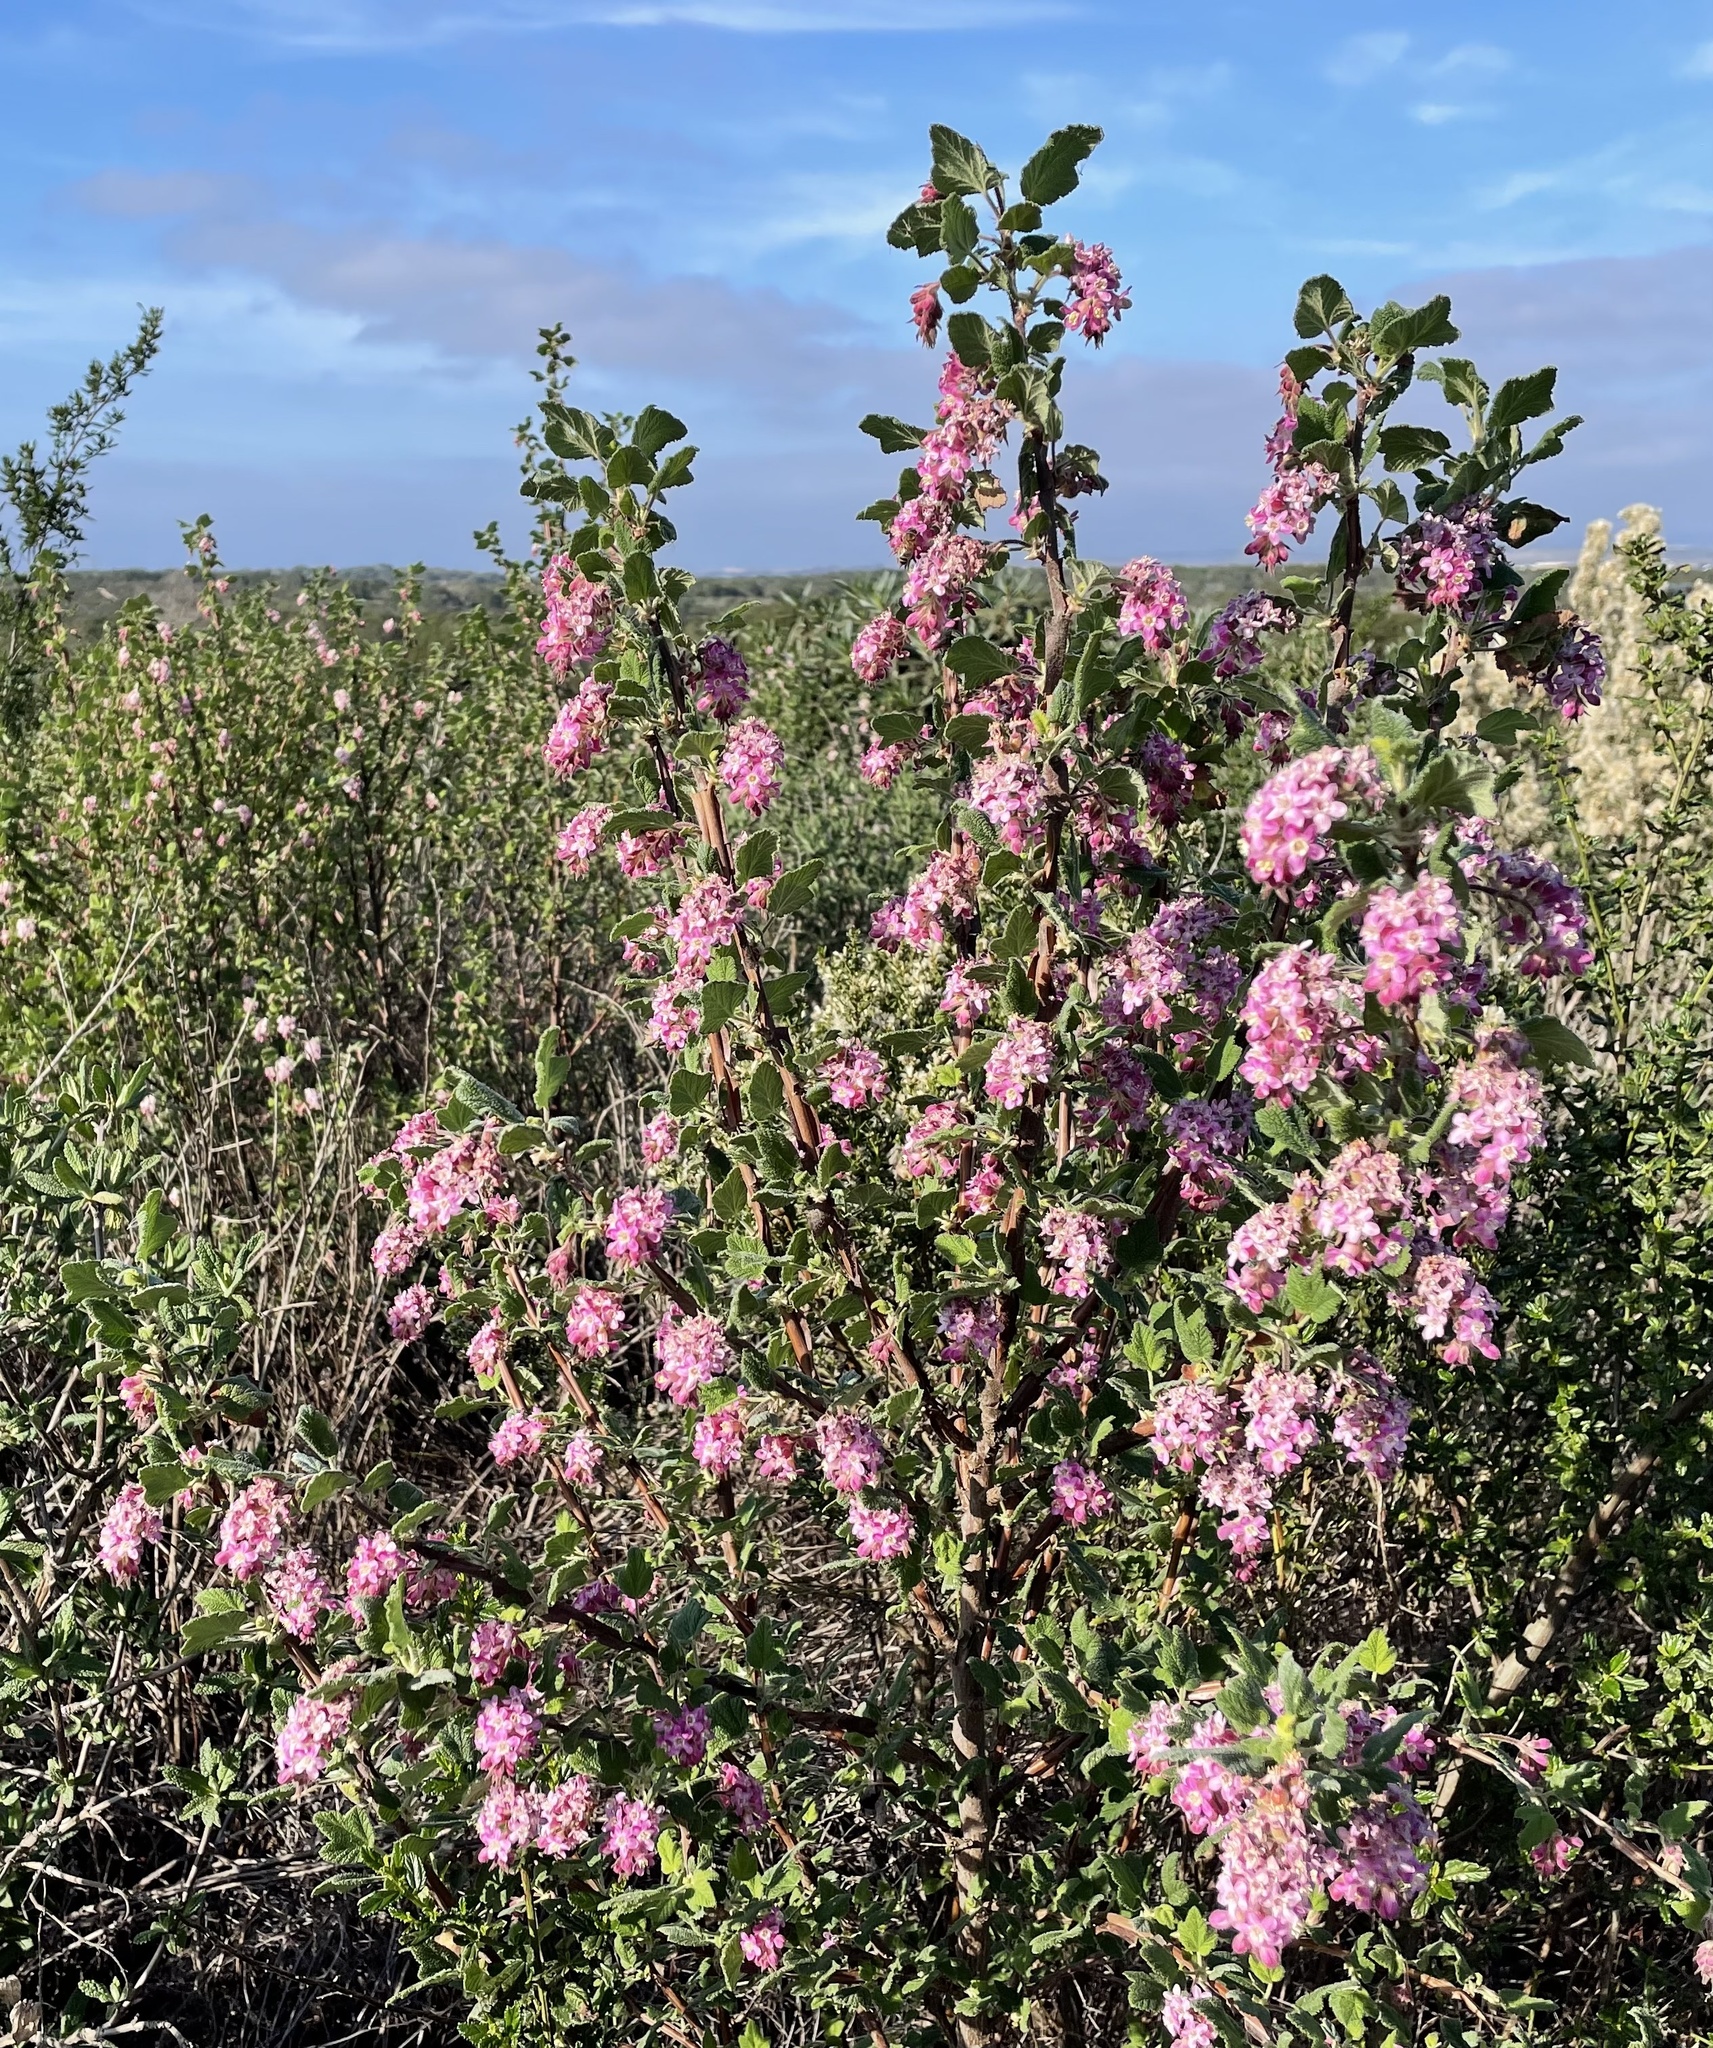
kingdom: Plantae
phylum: Tracheophyta
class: Magnoliopsida
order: Saxifragales
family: Grossulariaceae
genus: Ribes
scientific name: Ribes malvaceum
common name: Chaparral currant
